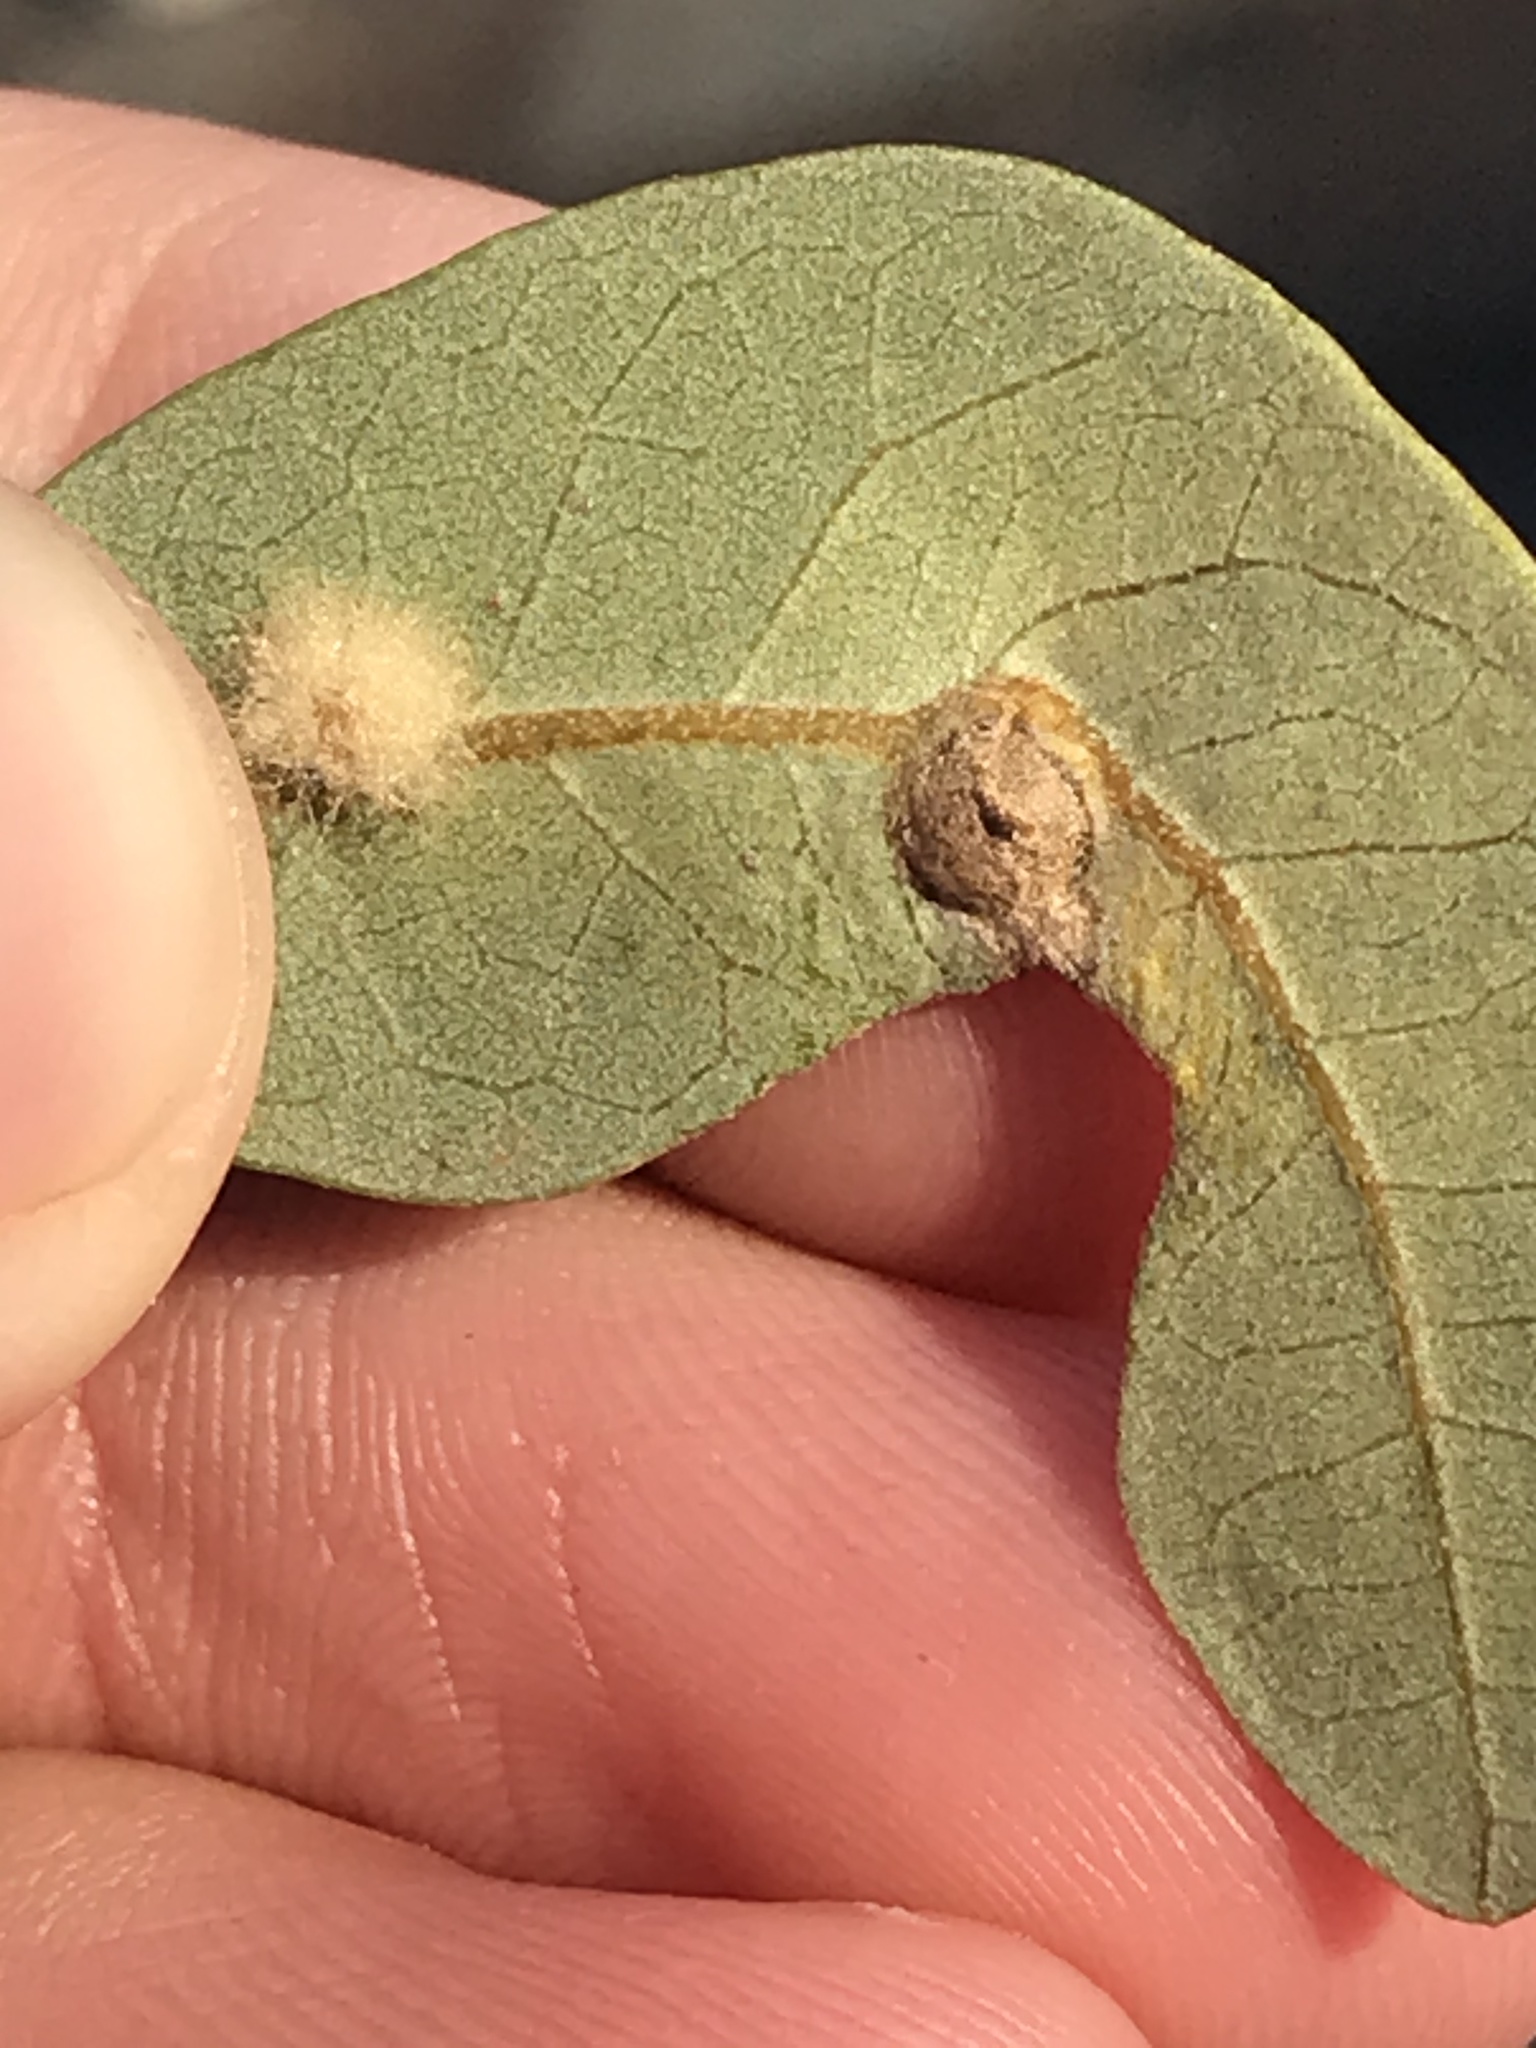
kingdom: Animalia
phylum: Arthropoda
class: Insecta
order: Hymenoptera
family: Cynipidae
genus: Andricus
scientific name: Andricus highlandensis
